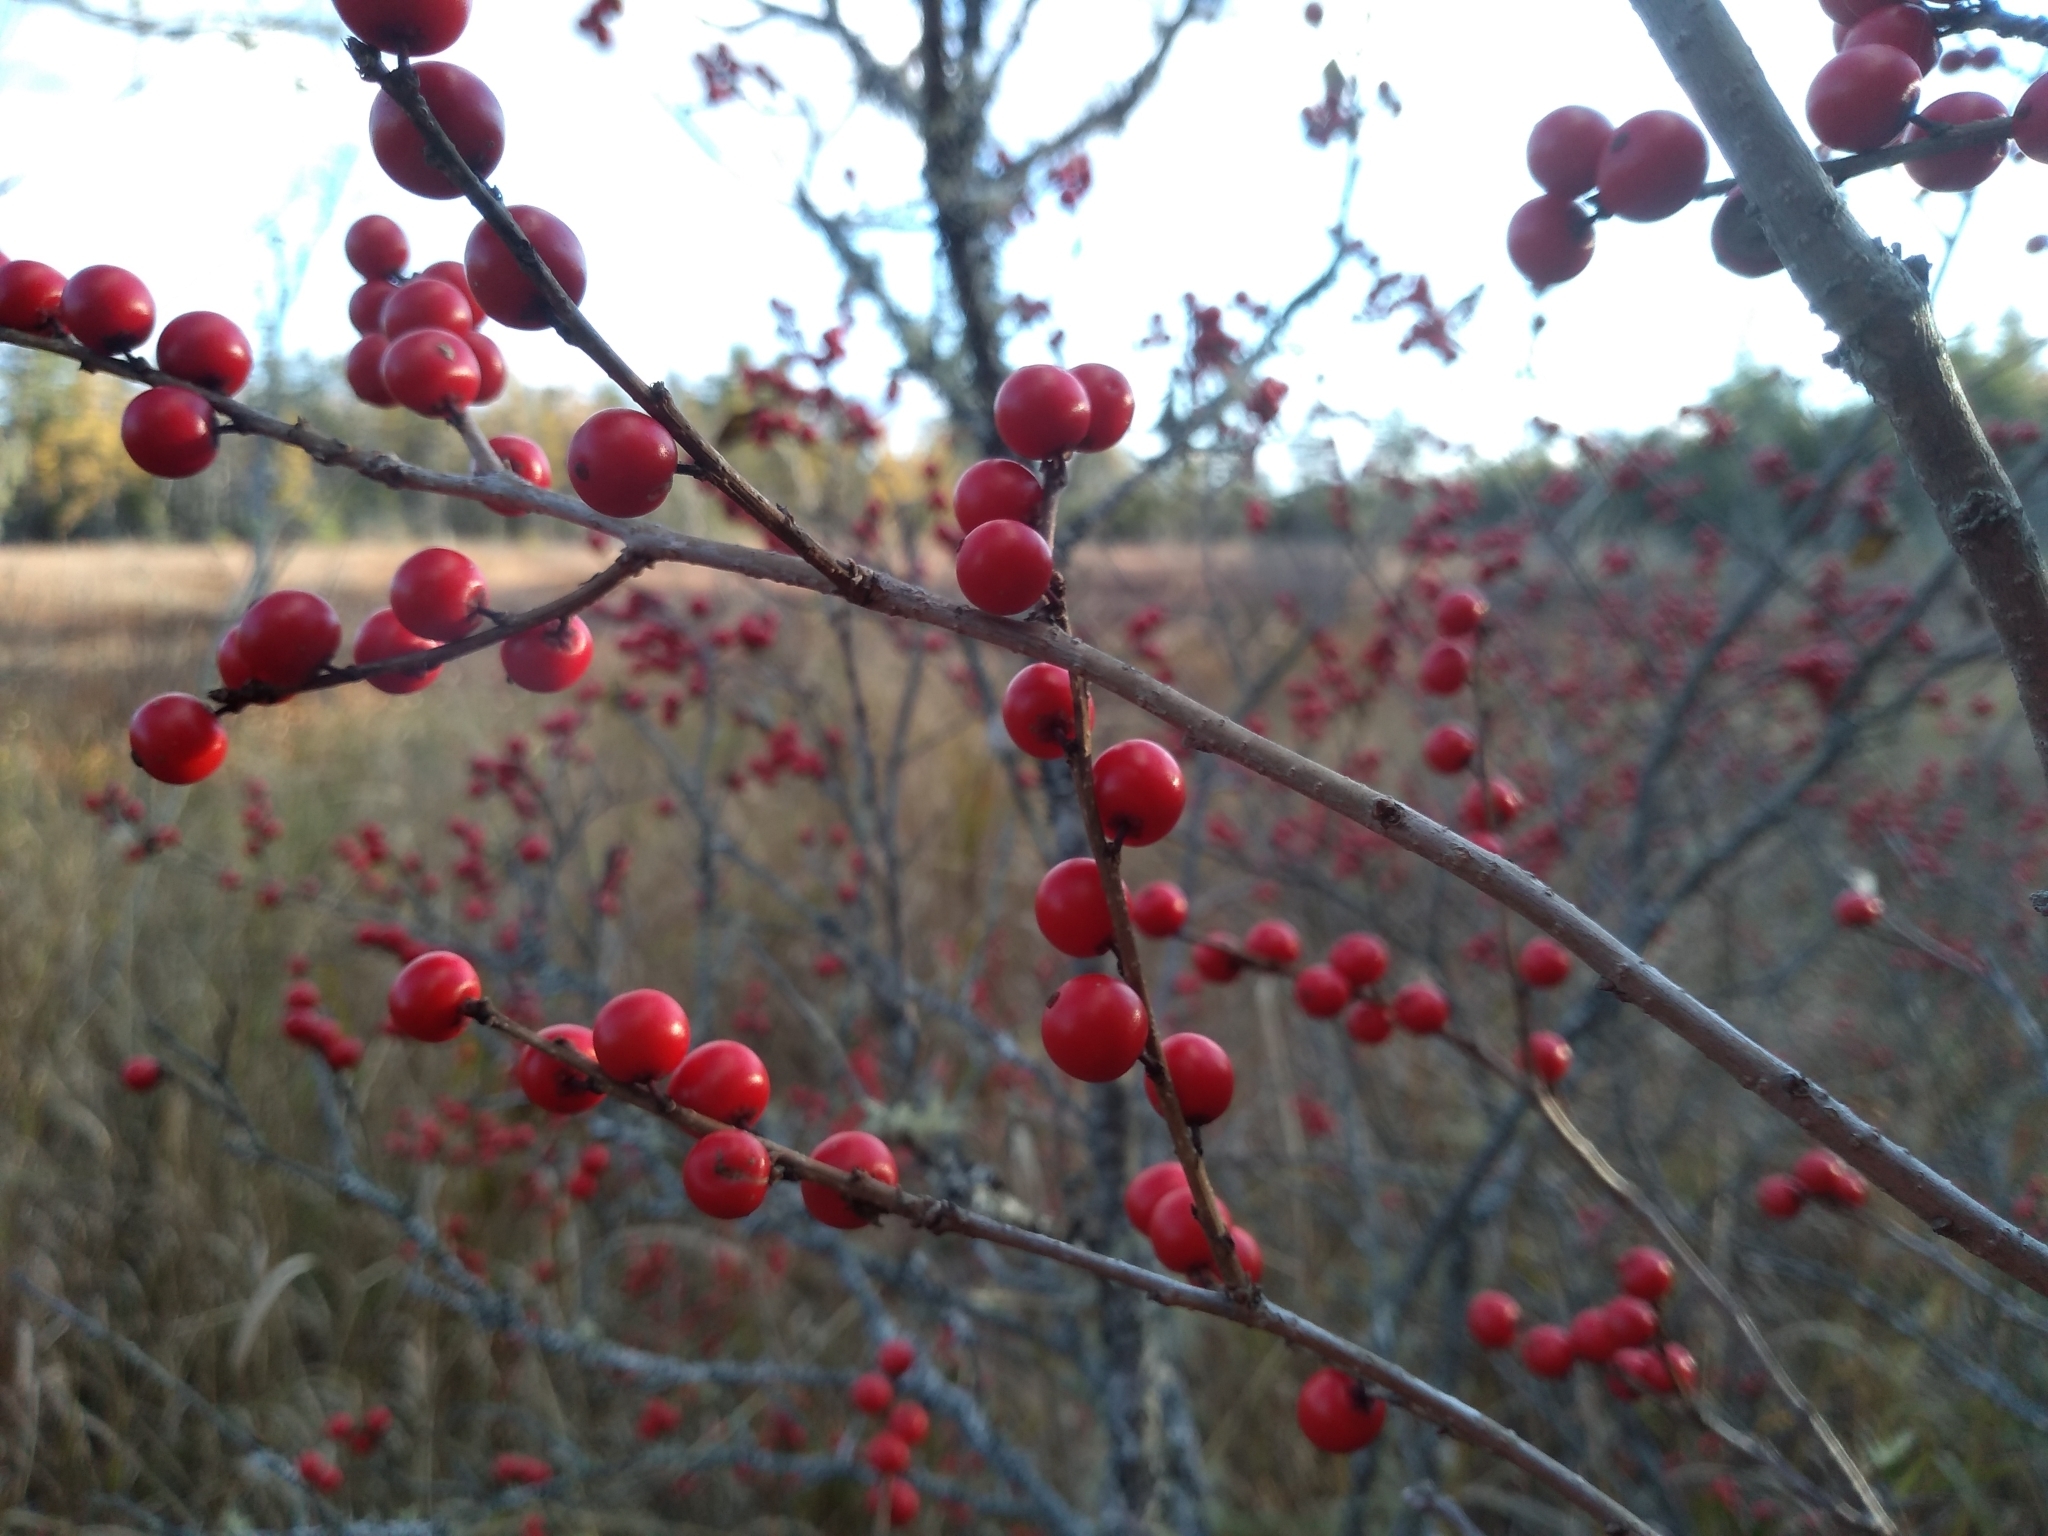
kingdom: Plantae
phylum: Tracheophyta
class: Magnoliopsida
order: Aquifoliales
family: Aquifoliaceae
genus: Ilex
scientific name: Ilex verticillata
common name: Virginia winterberry
